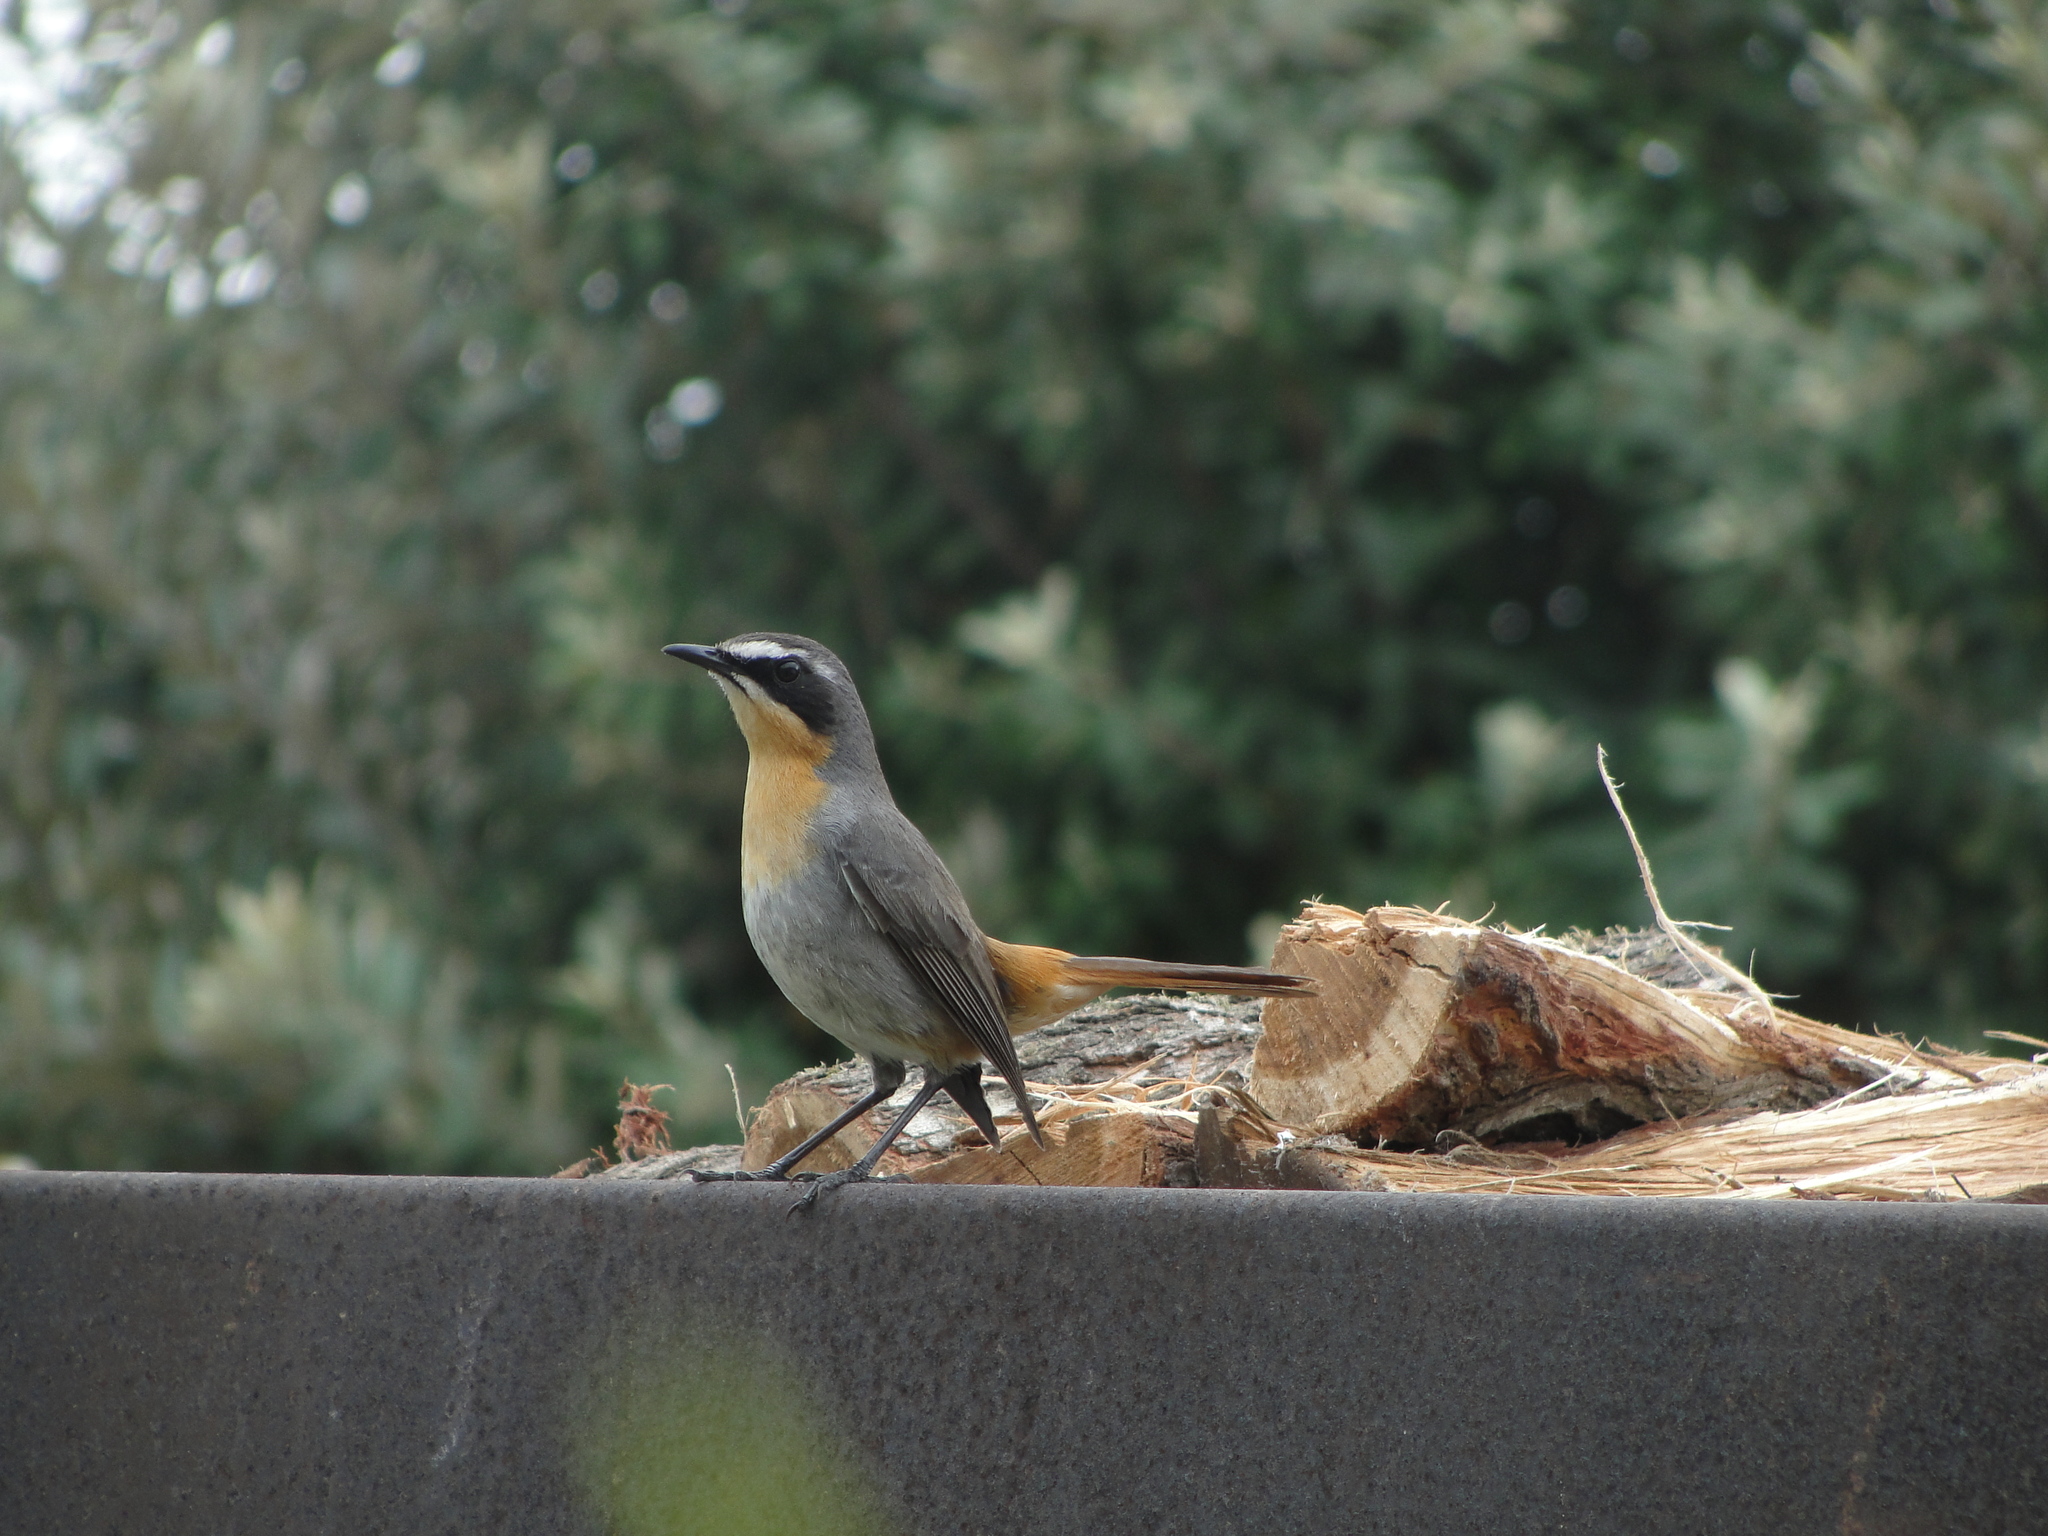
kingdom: Animalia
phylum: Chordata
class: Aves
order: Passeriformes
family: Muscicapidae
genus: Cossypha
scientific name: Cossypha caffra
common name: Cape robin-chat
